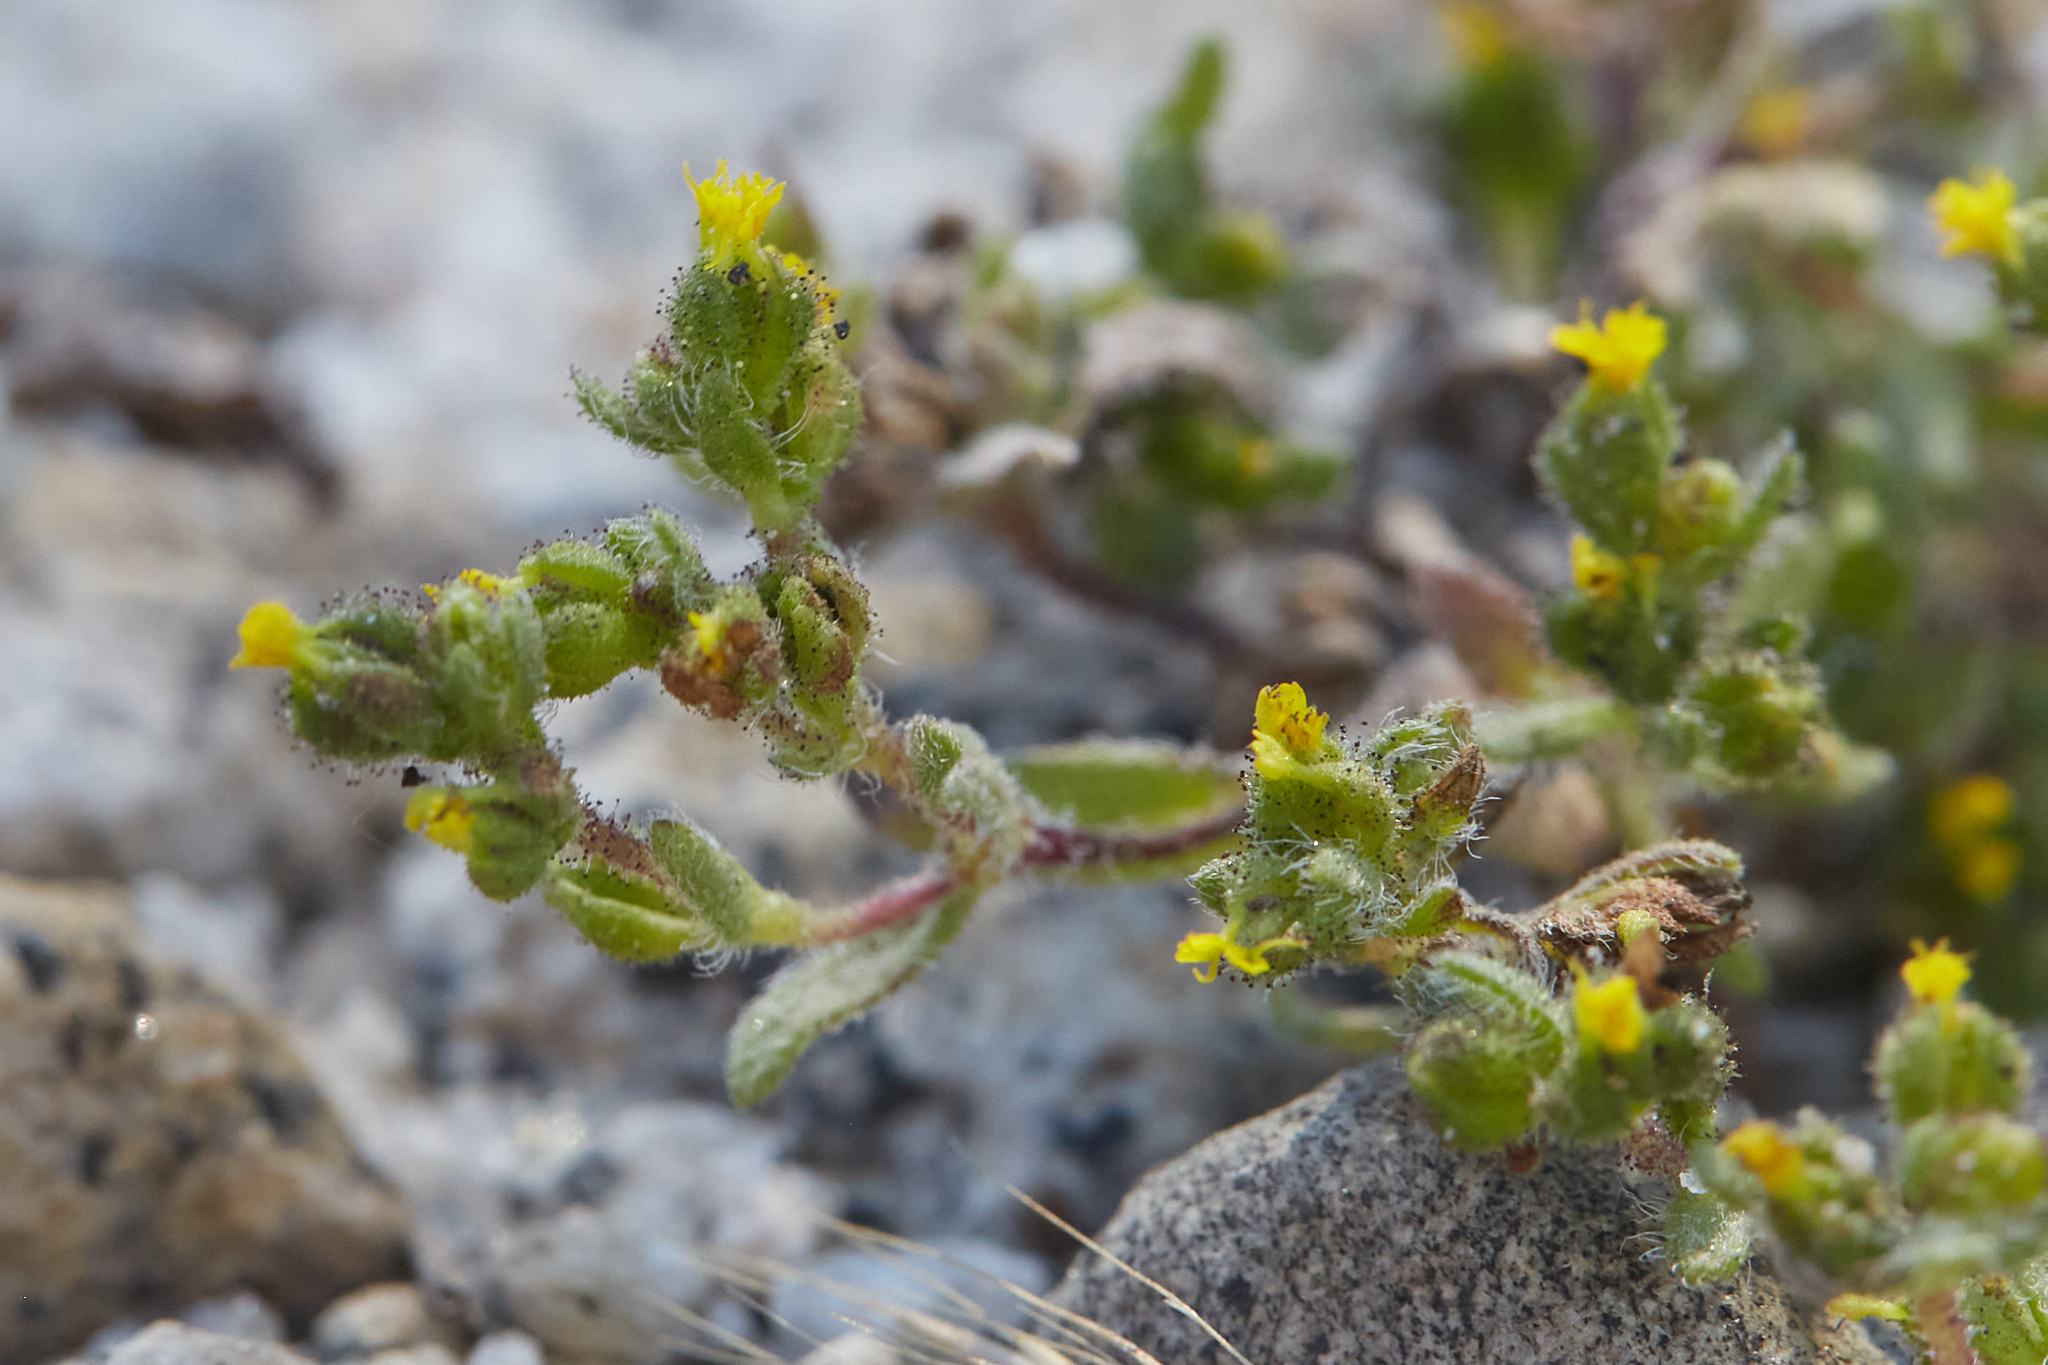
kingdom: Plantae
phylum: Tracheophyta
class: Magnoliopsida
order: Asterales
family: Asteraceae
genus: Hemizonella
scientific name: Hemizonella minima
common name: Opposite-leaved tarweed
